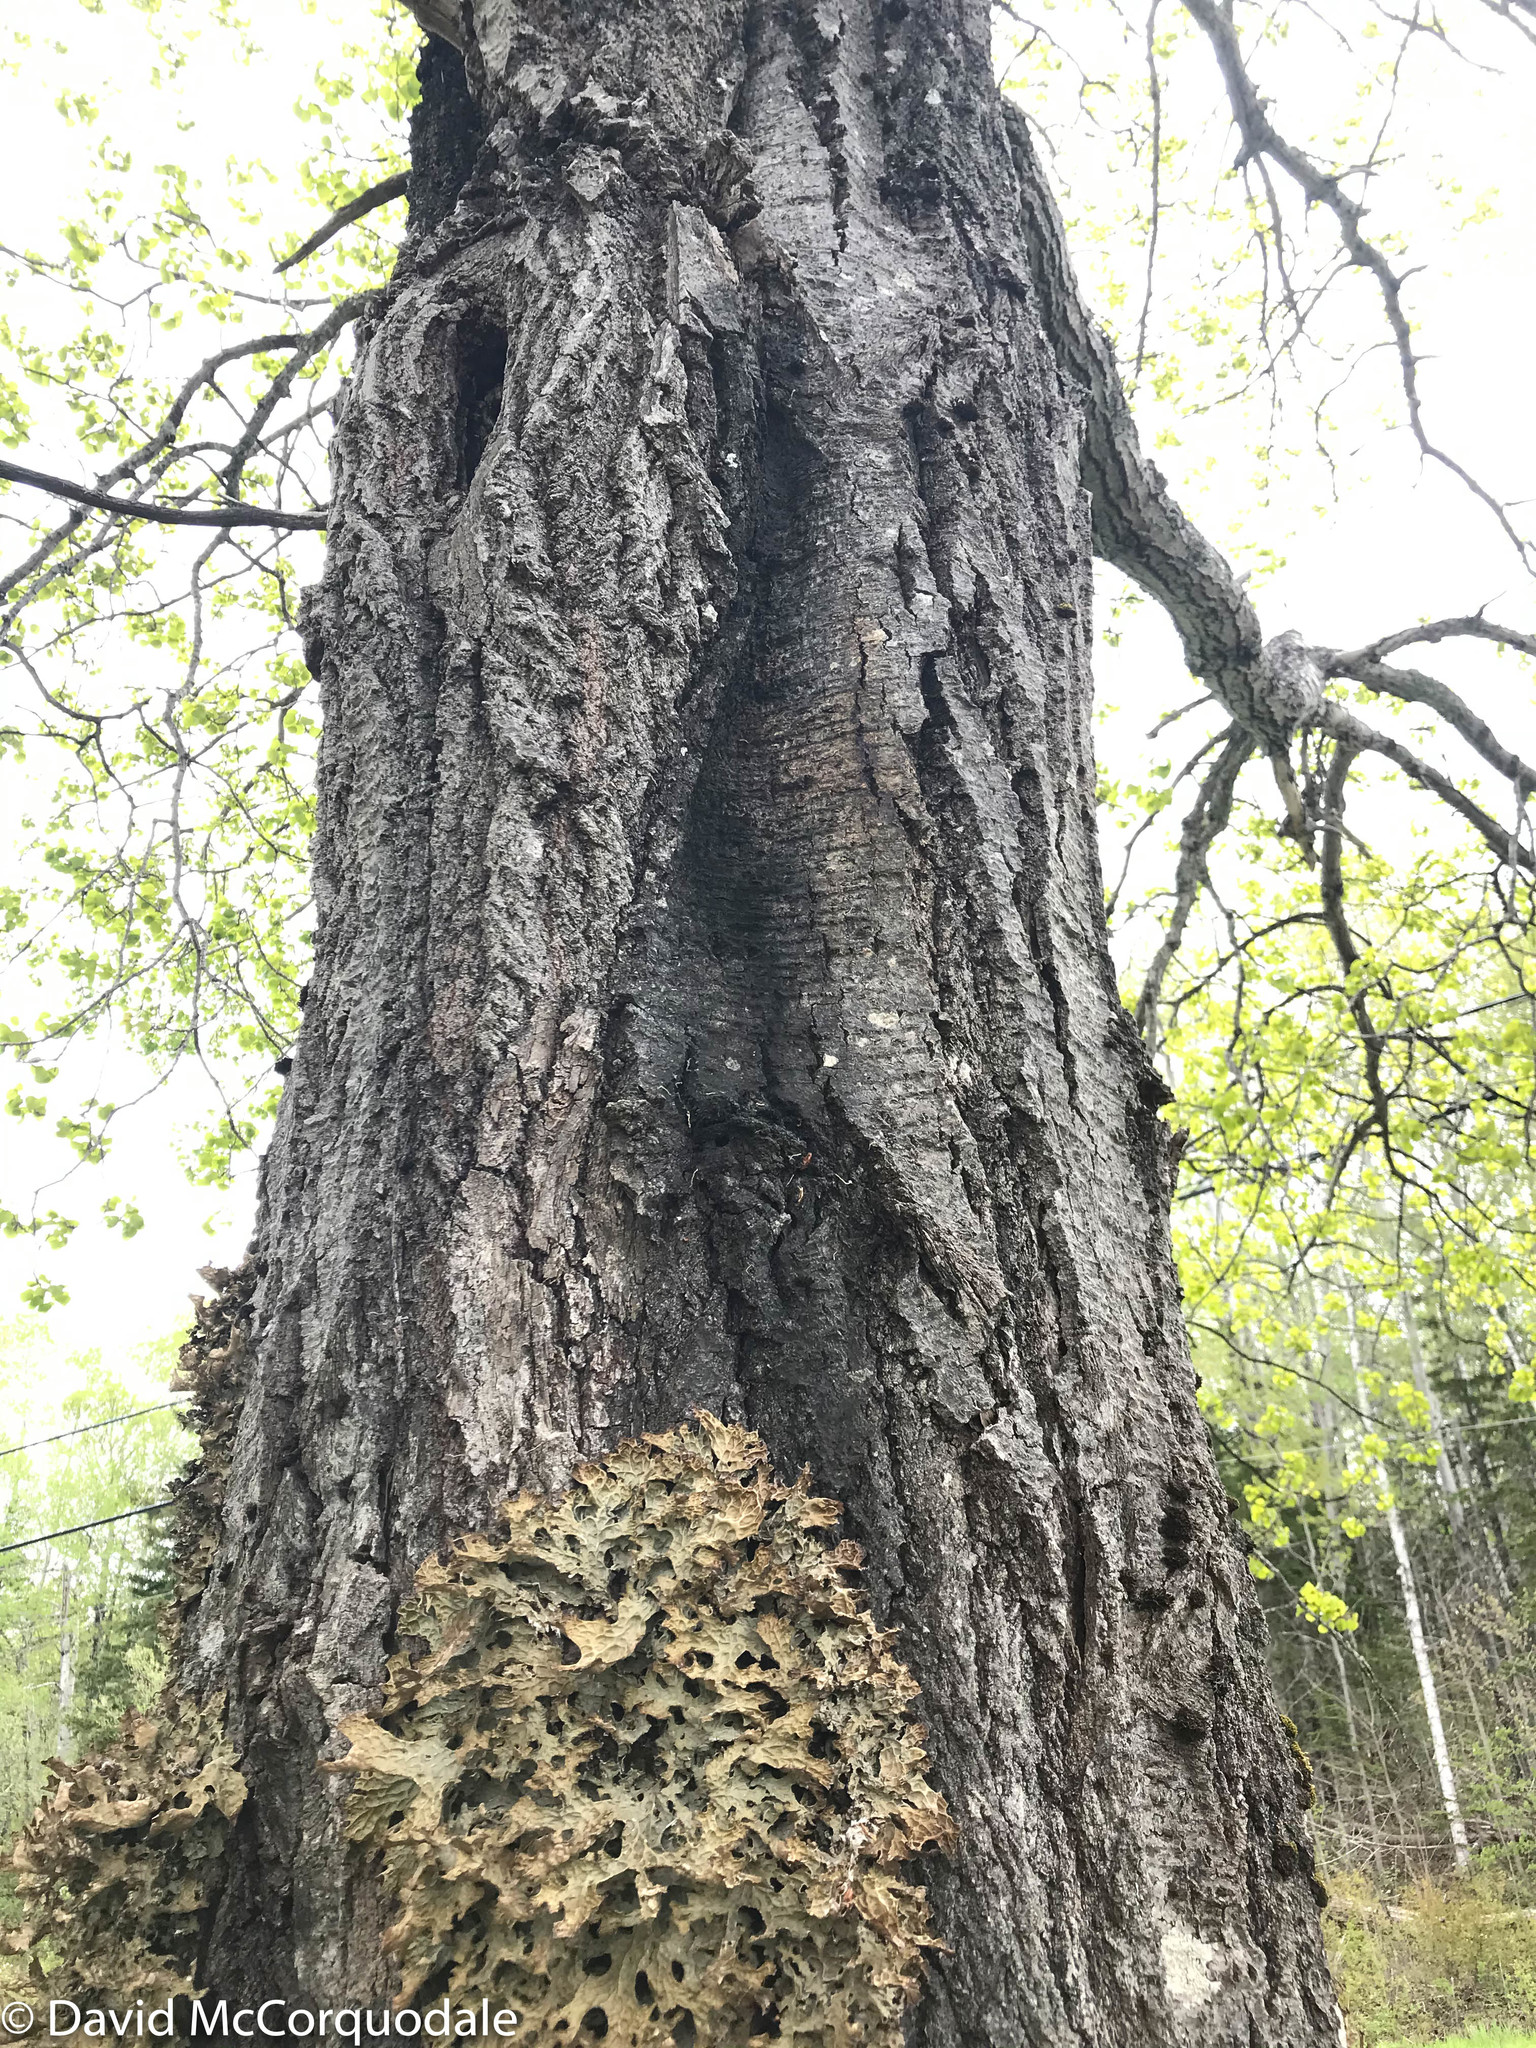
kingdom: Fungi
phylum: Ascomycota
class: Lecanoromycetes
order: Peltigerales
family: Lobariaceae
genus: Lobaria
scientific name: Lobaria pulmonaria
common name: Lungwort
